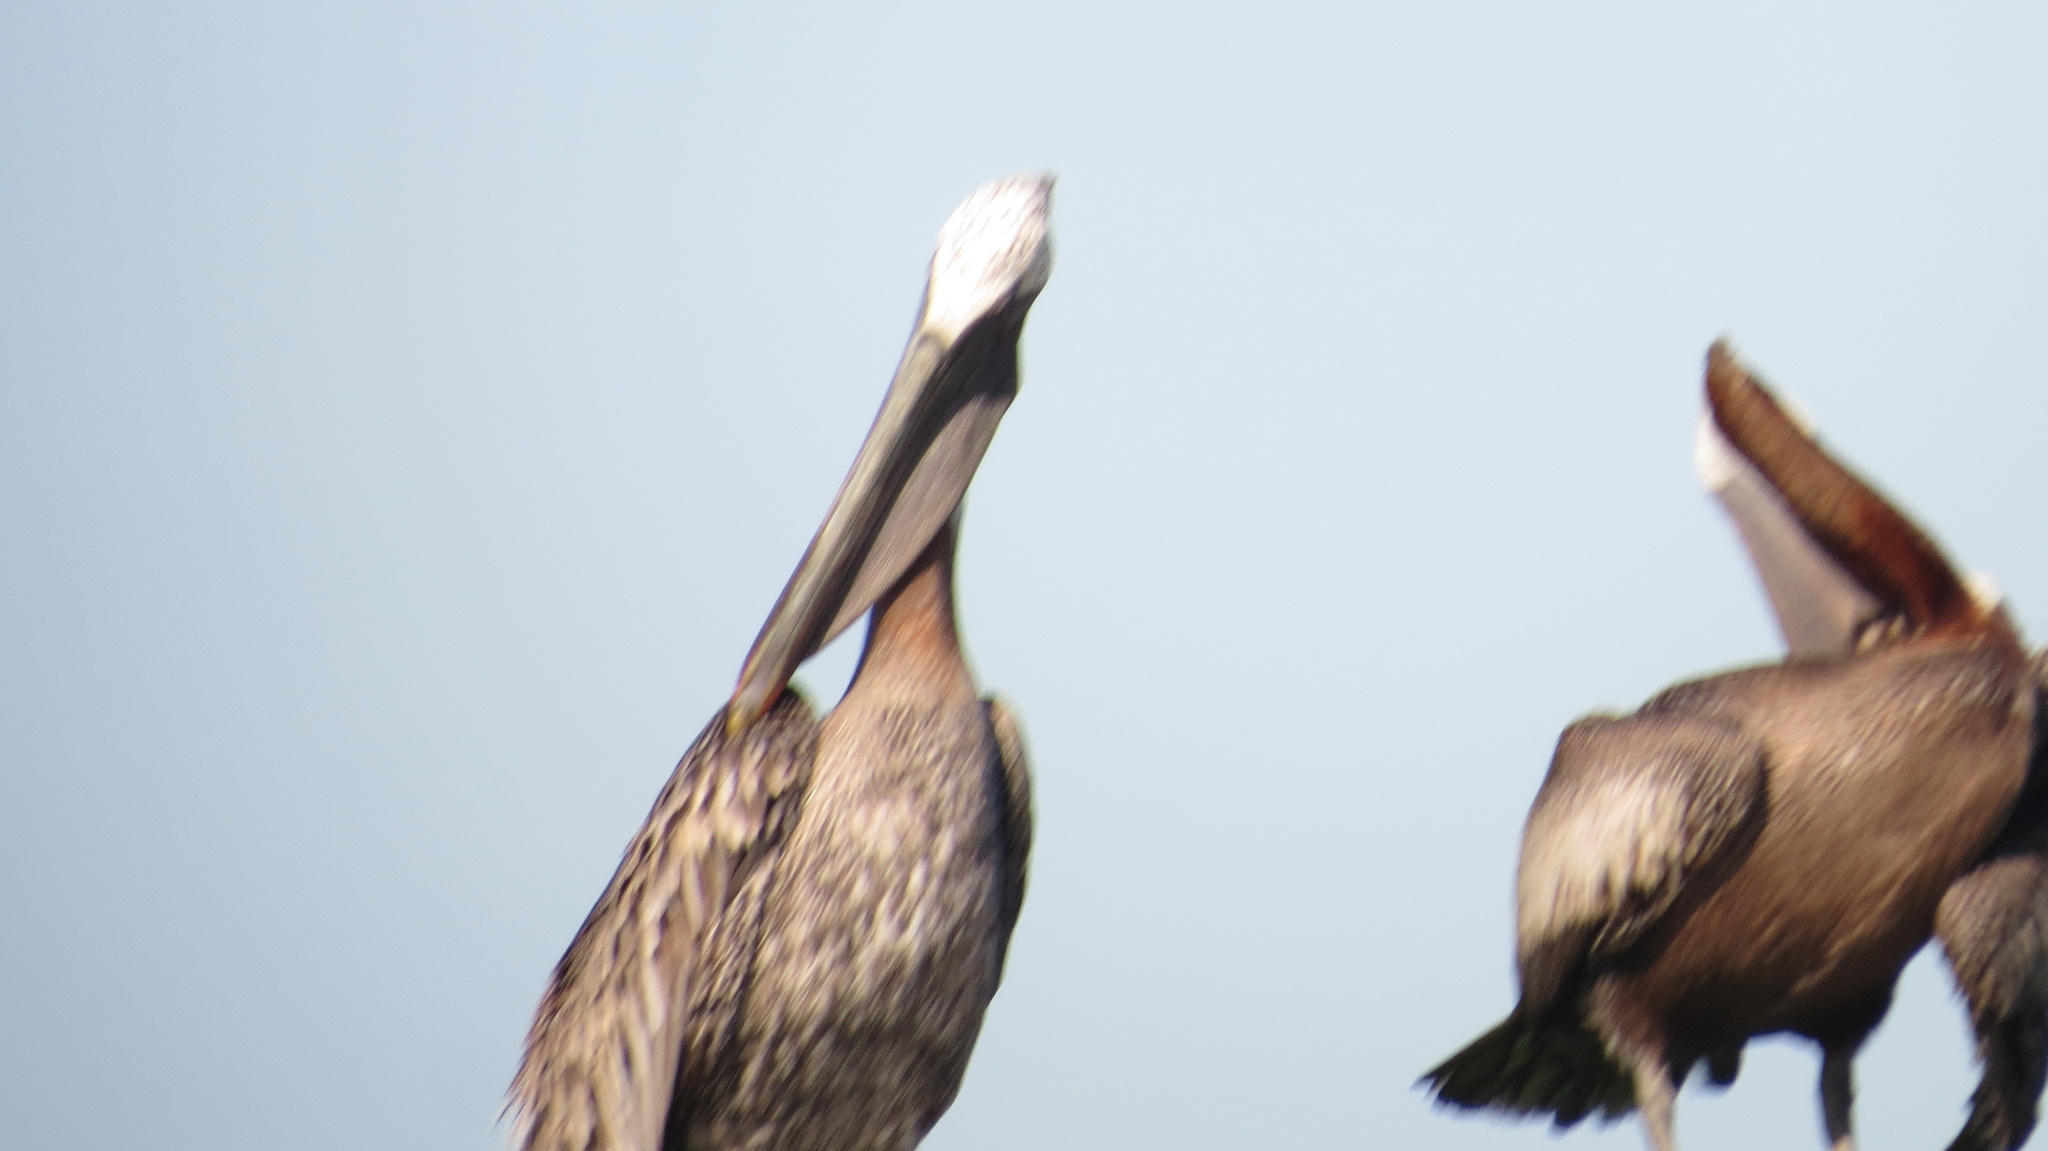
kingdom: Animalia
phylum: Chordata
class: Aves
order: Pelecaniformes
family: Pelecanidae
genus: Pelecanus
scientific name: Pelecanus occidentalis
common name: Brown pelican
